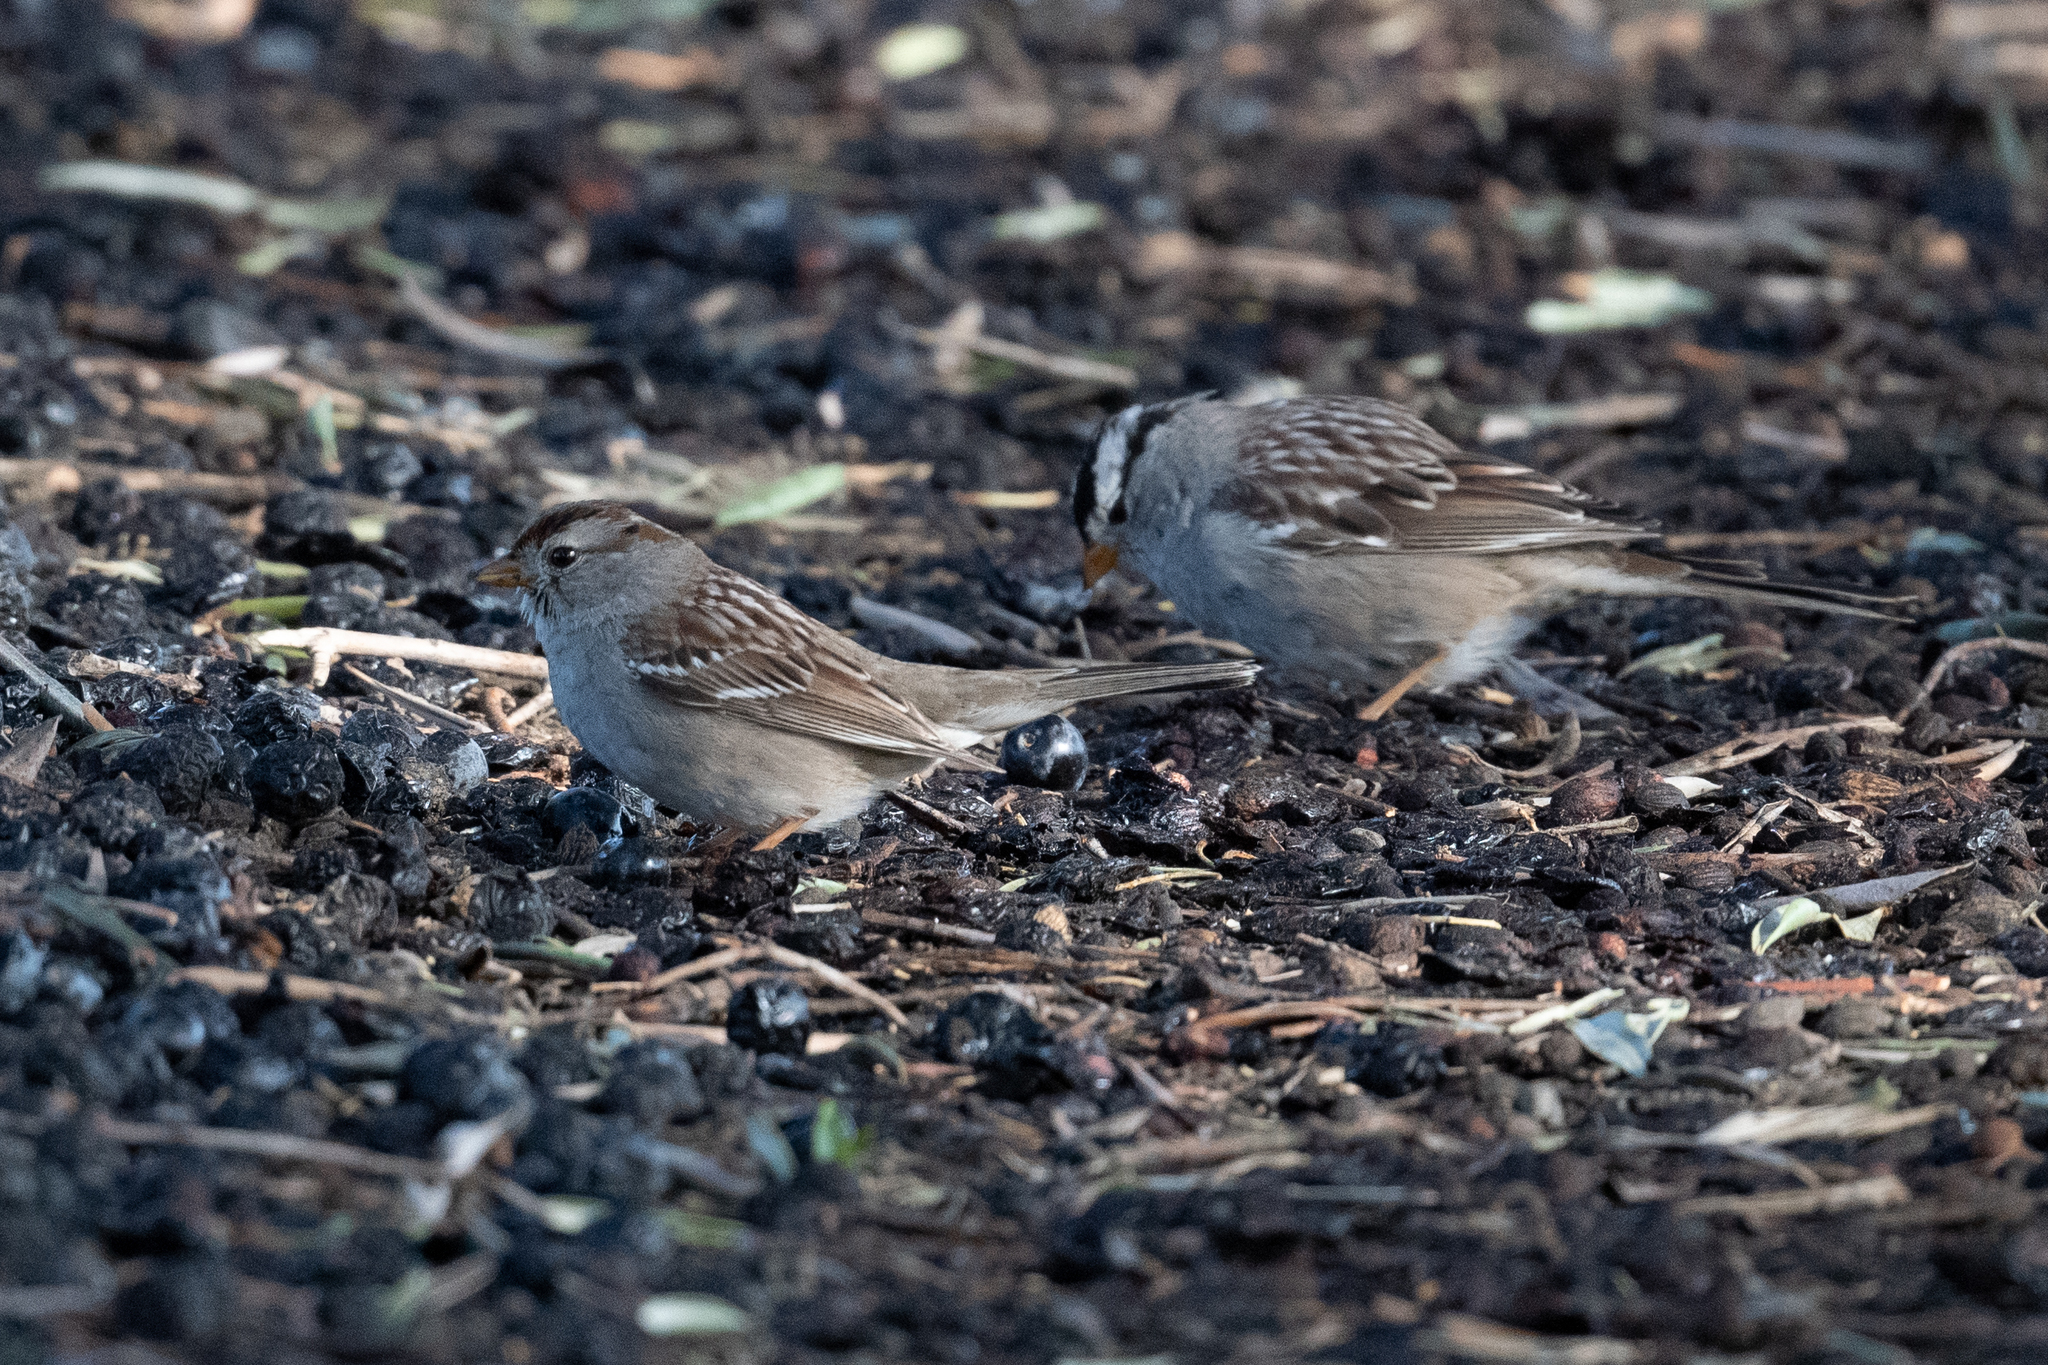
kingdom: Animalia
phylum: Chordata
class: Aves
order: Passeriformes
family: Passerellidae
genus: Zonotrichia
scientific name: Zonotrichia leucophrys
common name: White-crowned sparrow
